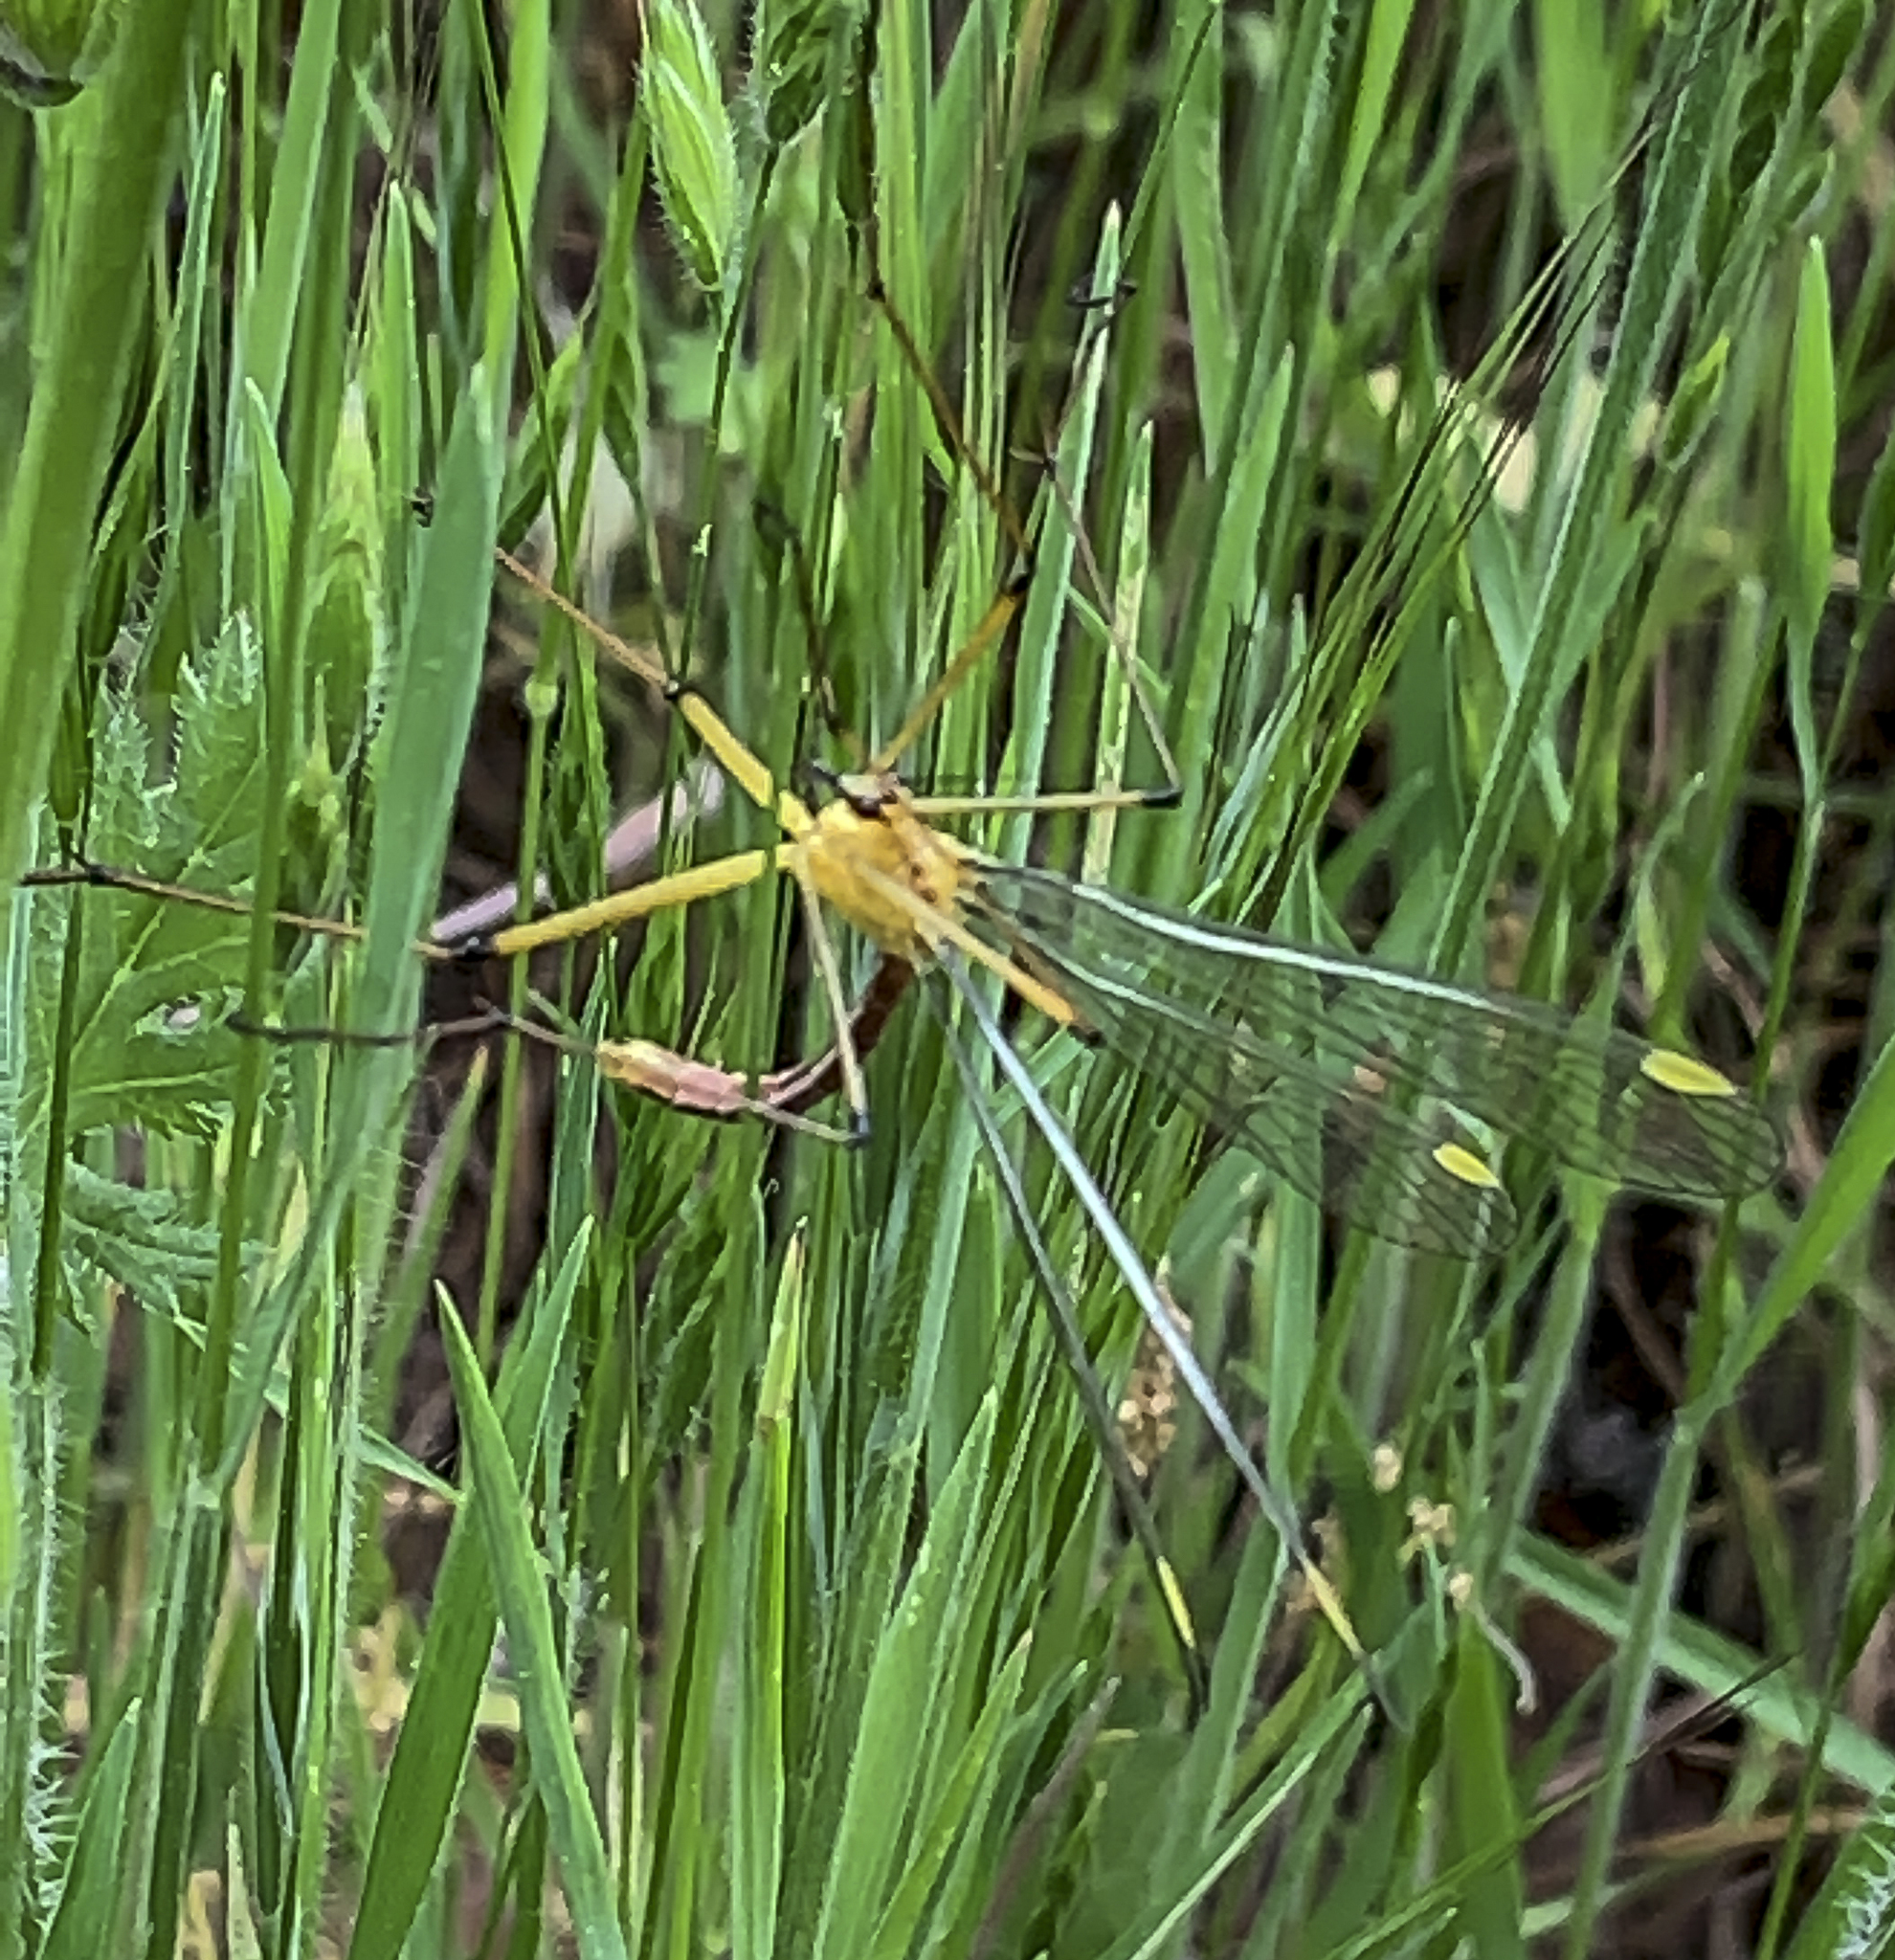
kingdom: Animalia
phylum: Arthropoda
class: Insecta
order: Mecoptera
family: Bittacidae
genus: Bittacus
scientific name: Bittacus chlorostigma
